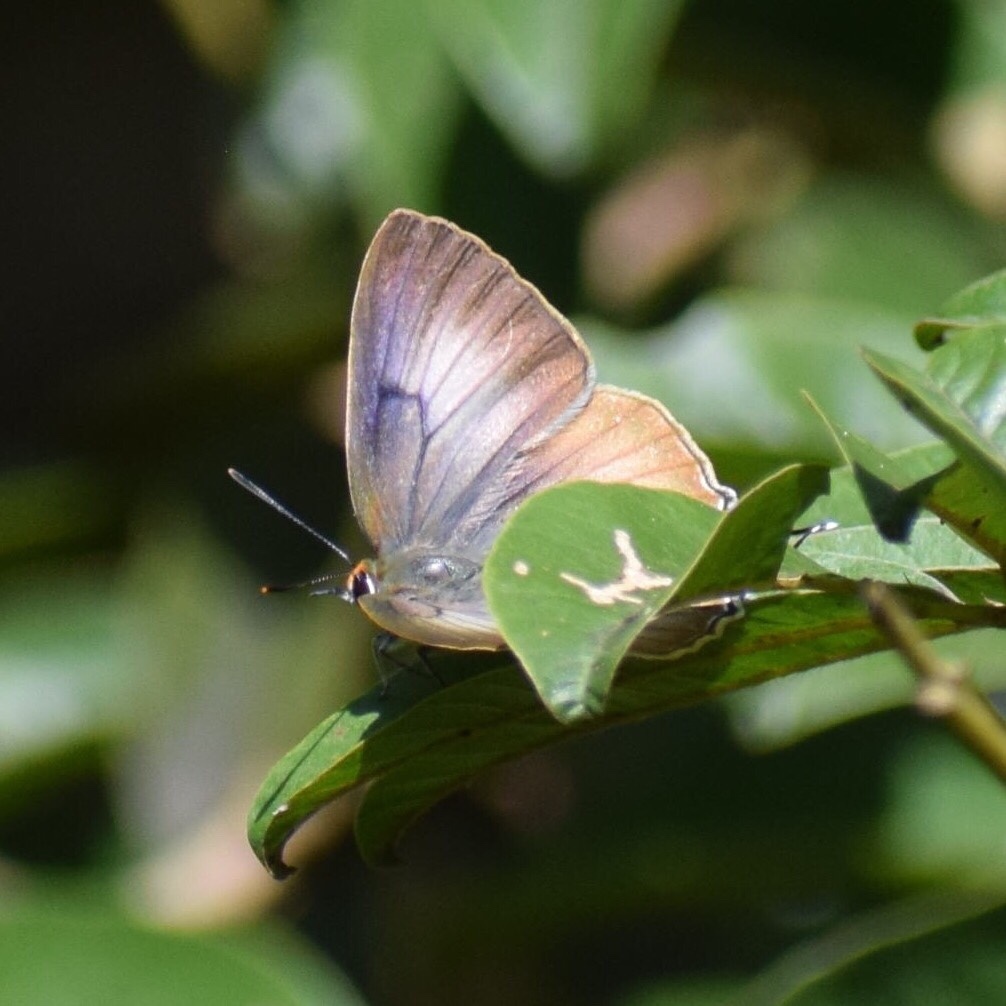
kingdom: Animalia
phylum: Arthropoda
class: Insecta
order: Lepidoptera
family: Lycaenidae
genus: Deudorix
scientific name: Deudorix antalus
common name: Brown playboy
